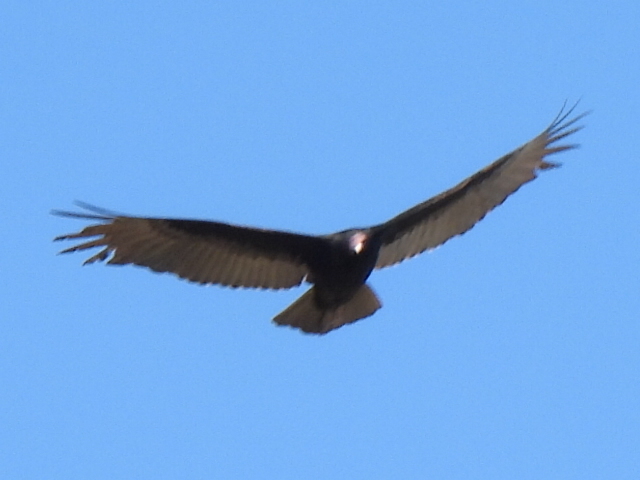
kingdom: Animalia
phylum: Chordata
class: Aves
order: Accipitriformes
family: Cathartidae
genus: Cathartes
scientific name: Cathartes aura
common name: Turkey vulture
